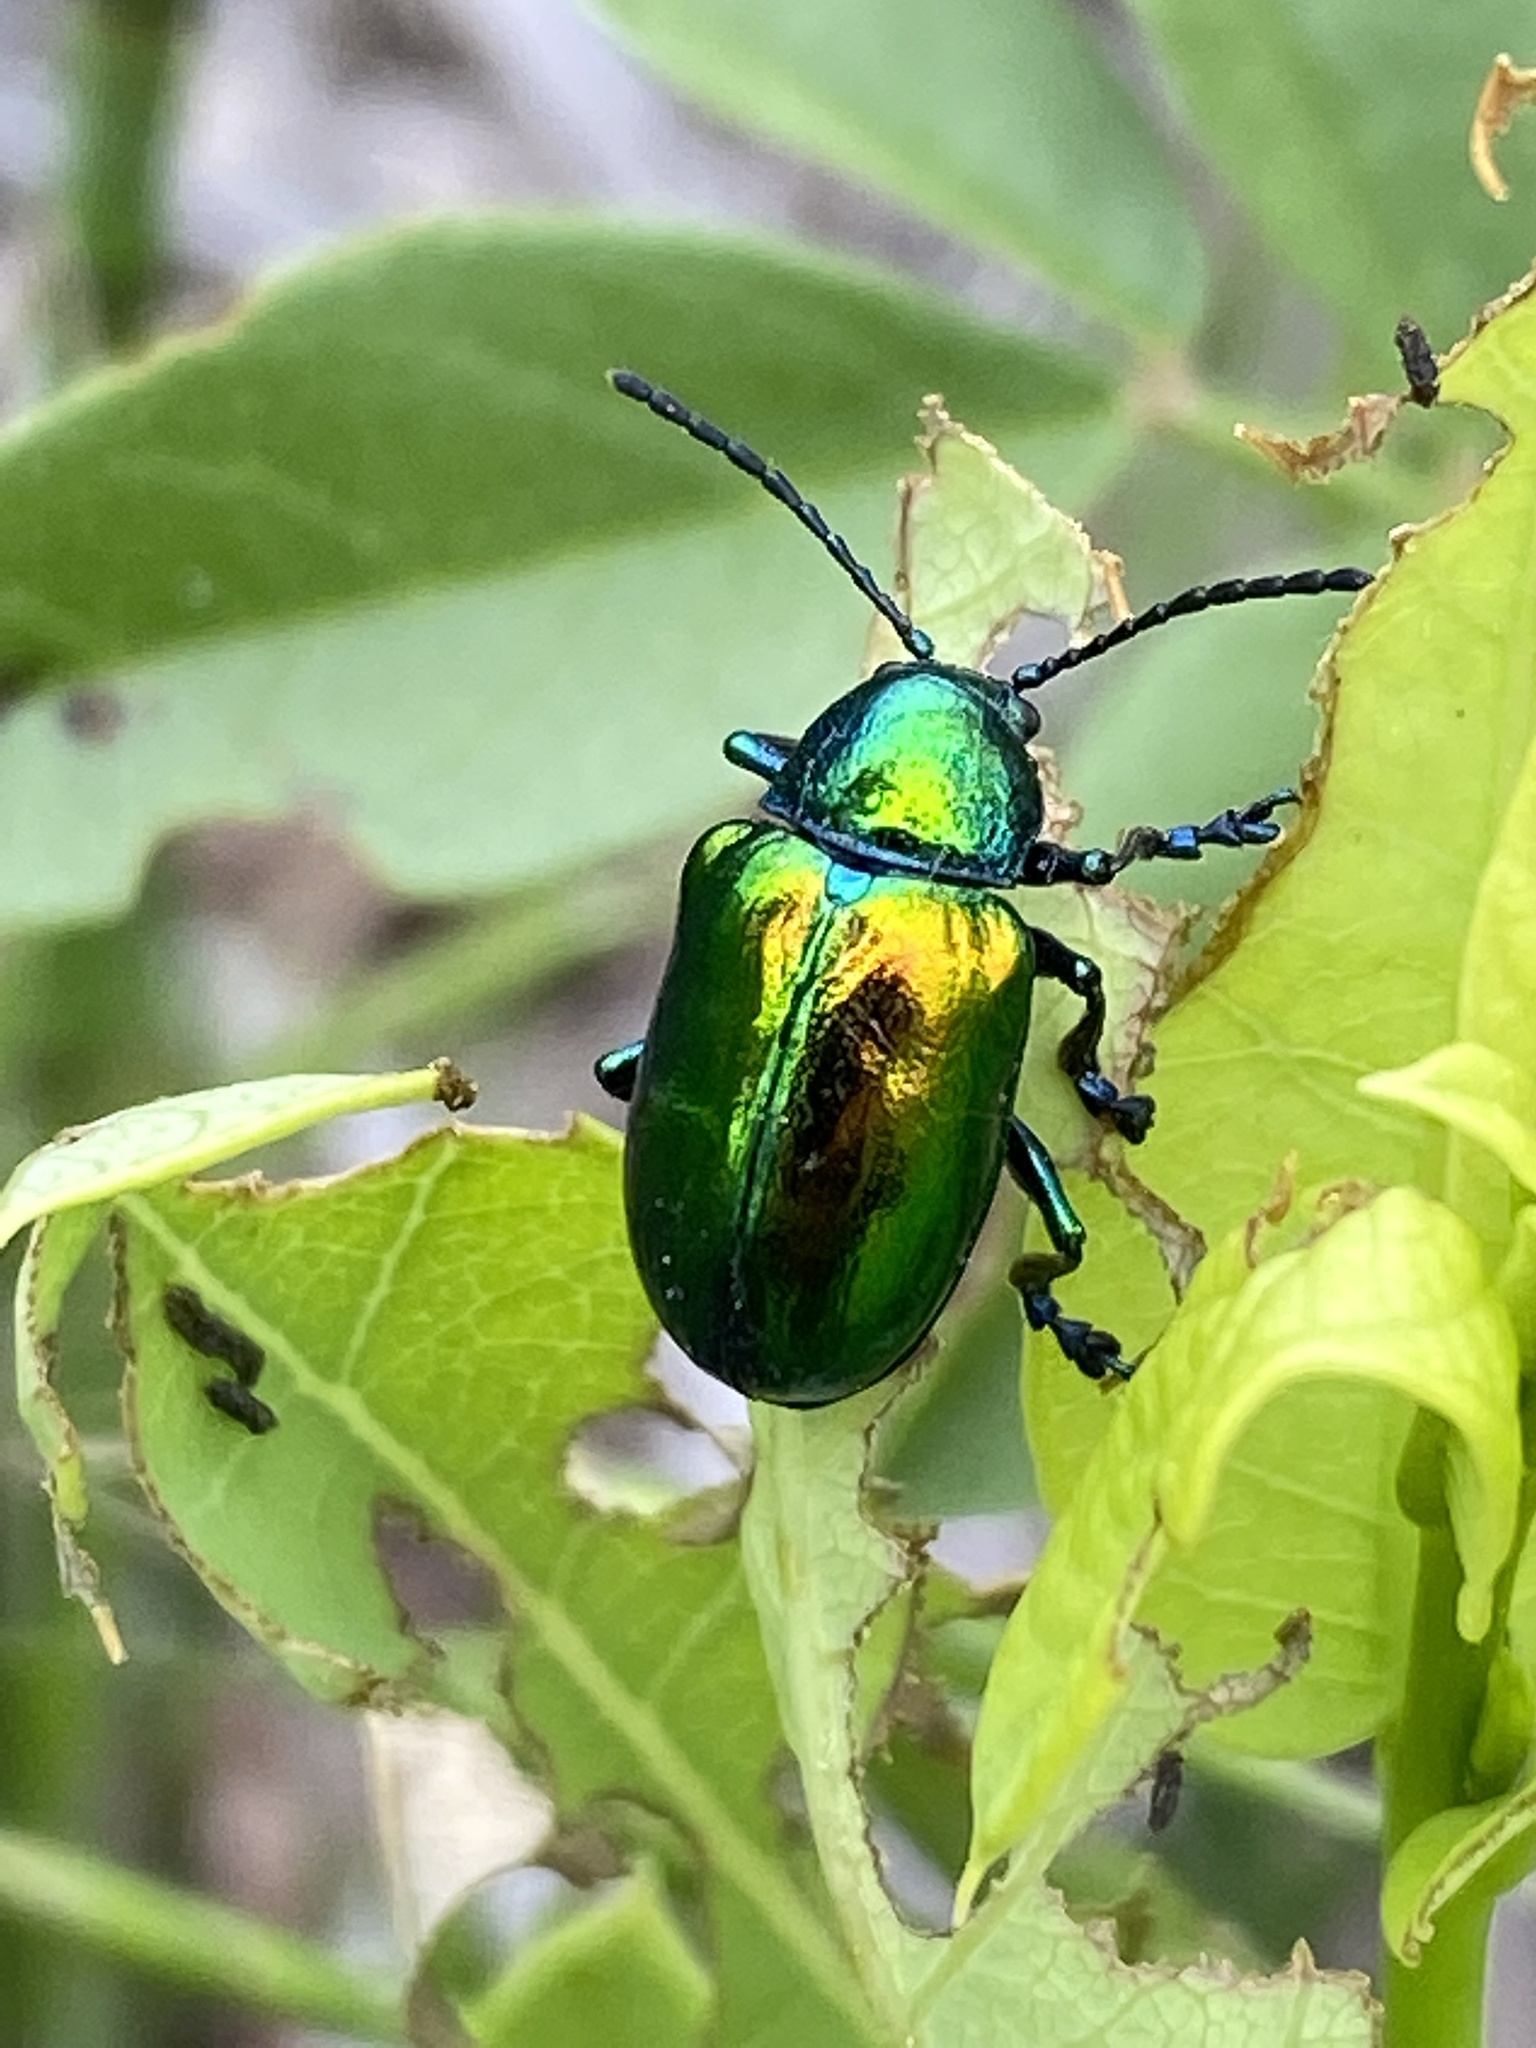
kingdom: Animalia
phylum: Arthropoda
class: Insecta
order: Coleoptera
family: Chrysomelidae
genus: Chrysochus
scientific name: Chrysochus auratus
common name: Dogbane leaf beetle
